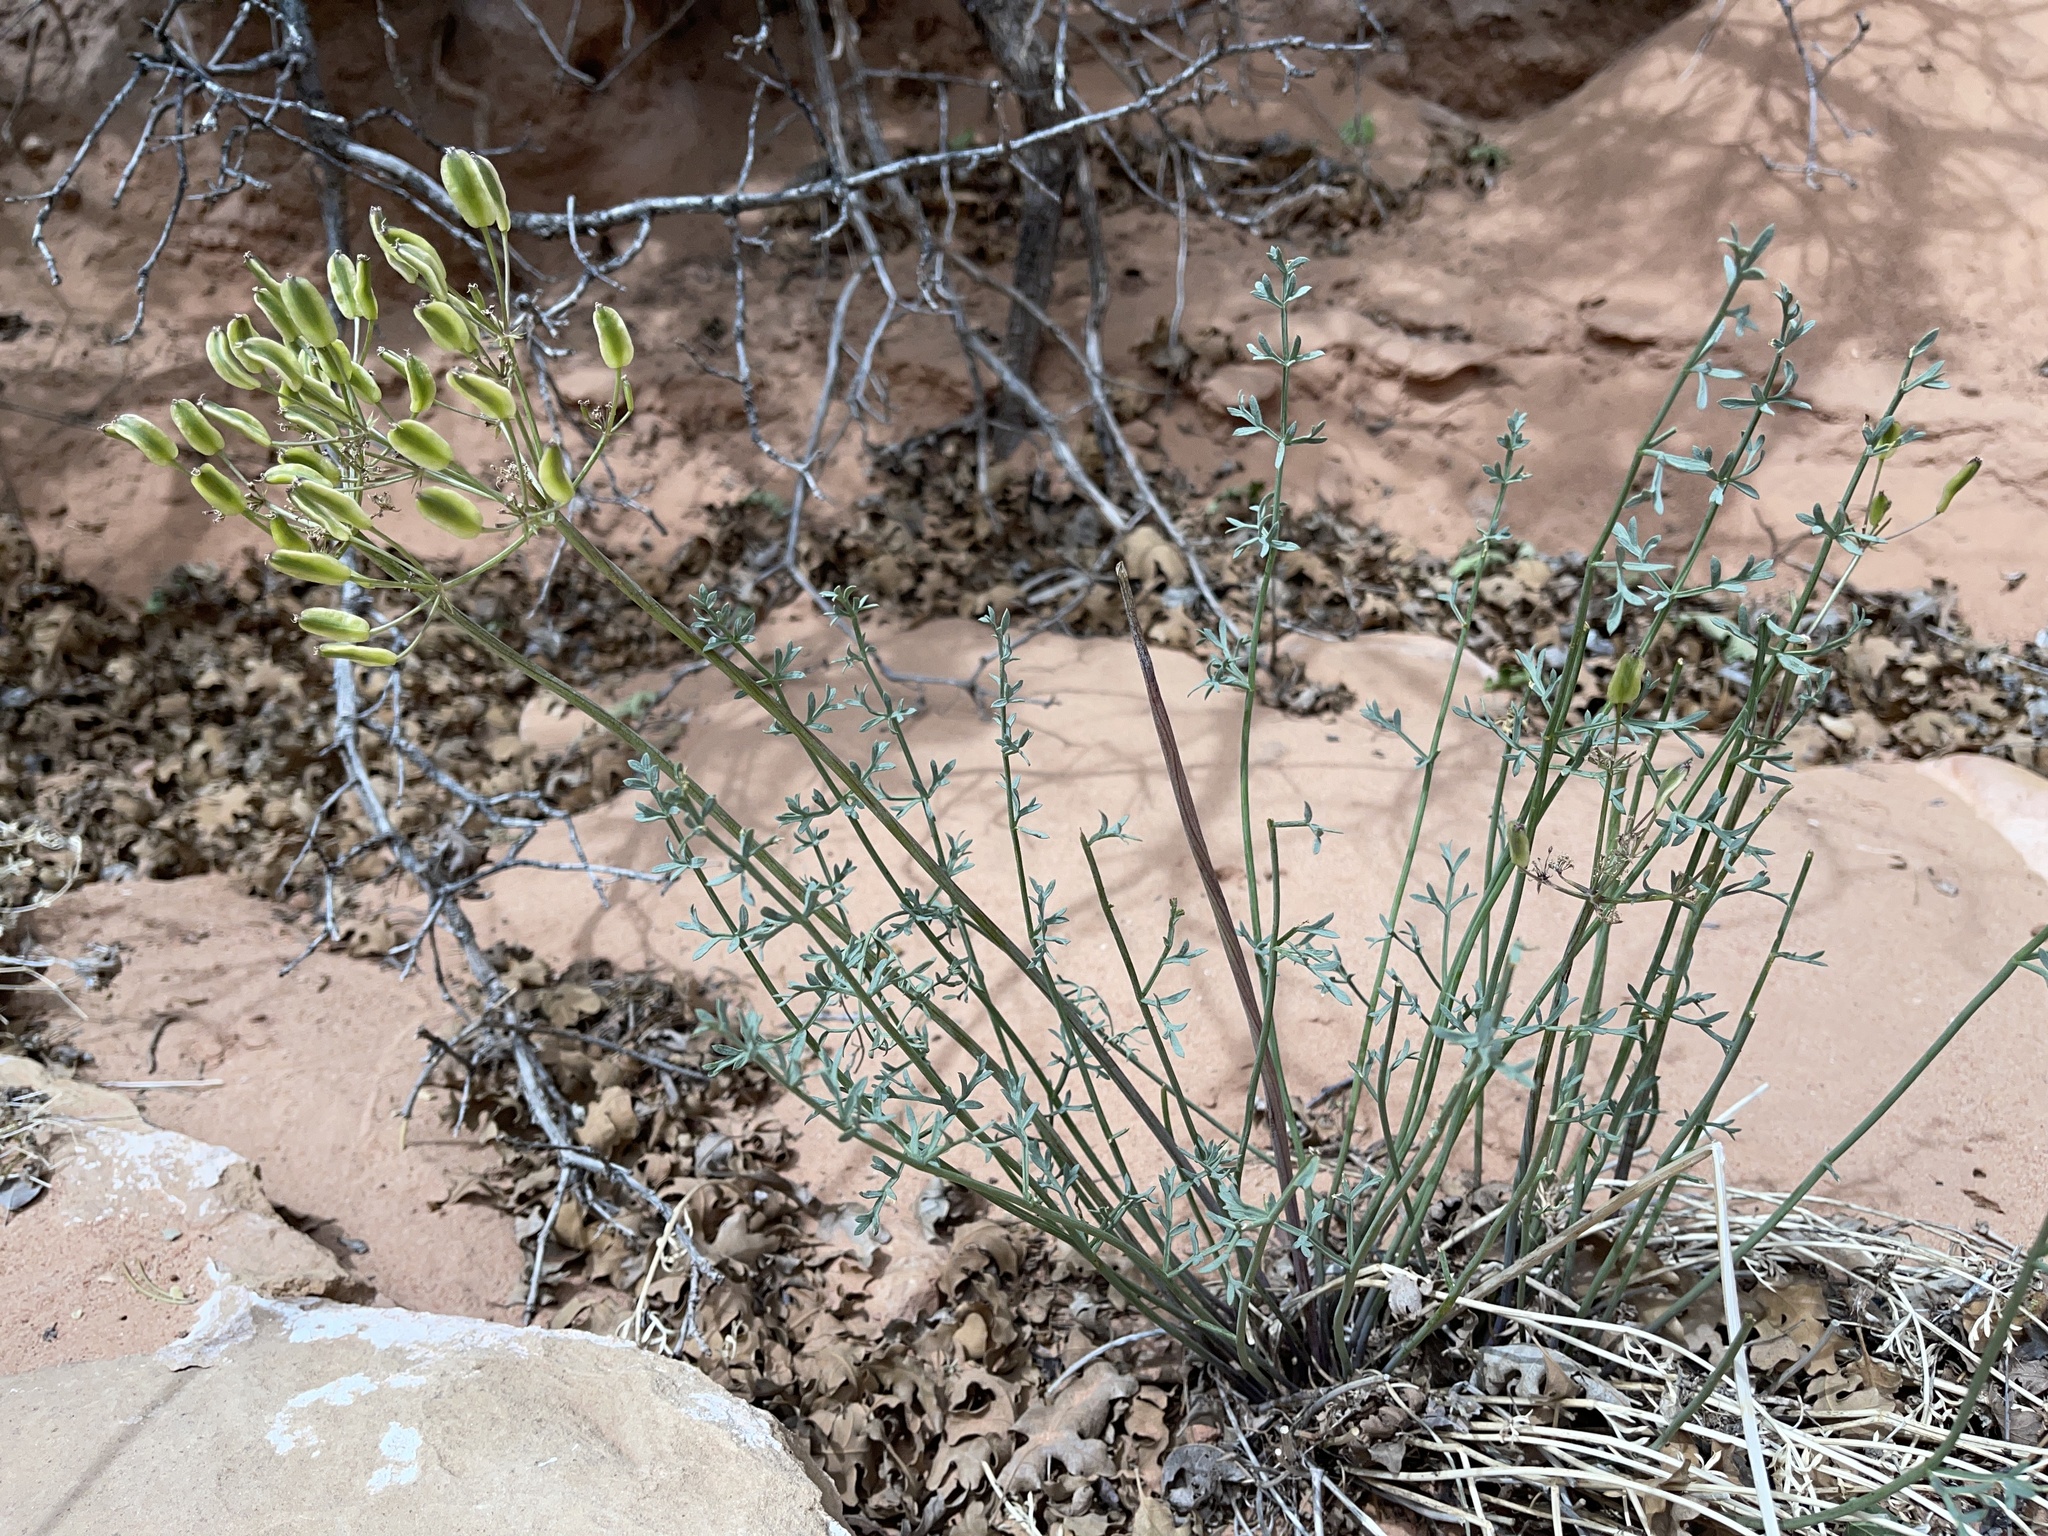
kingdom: Plantae
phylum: Tracheophyta
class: Magnoliopsida
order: Apiales
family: Apiaceae
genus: Lomatium
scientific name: Lomatium parryi
